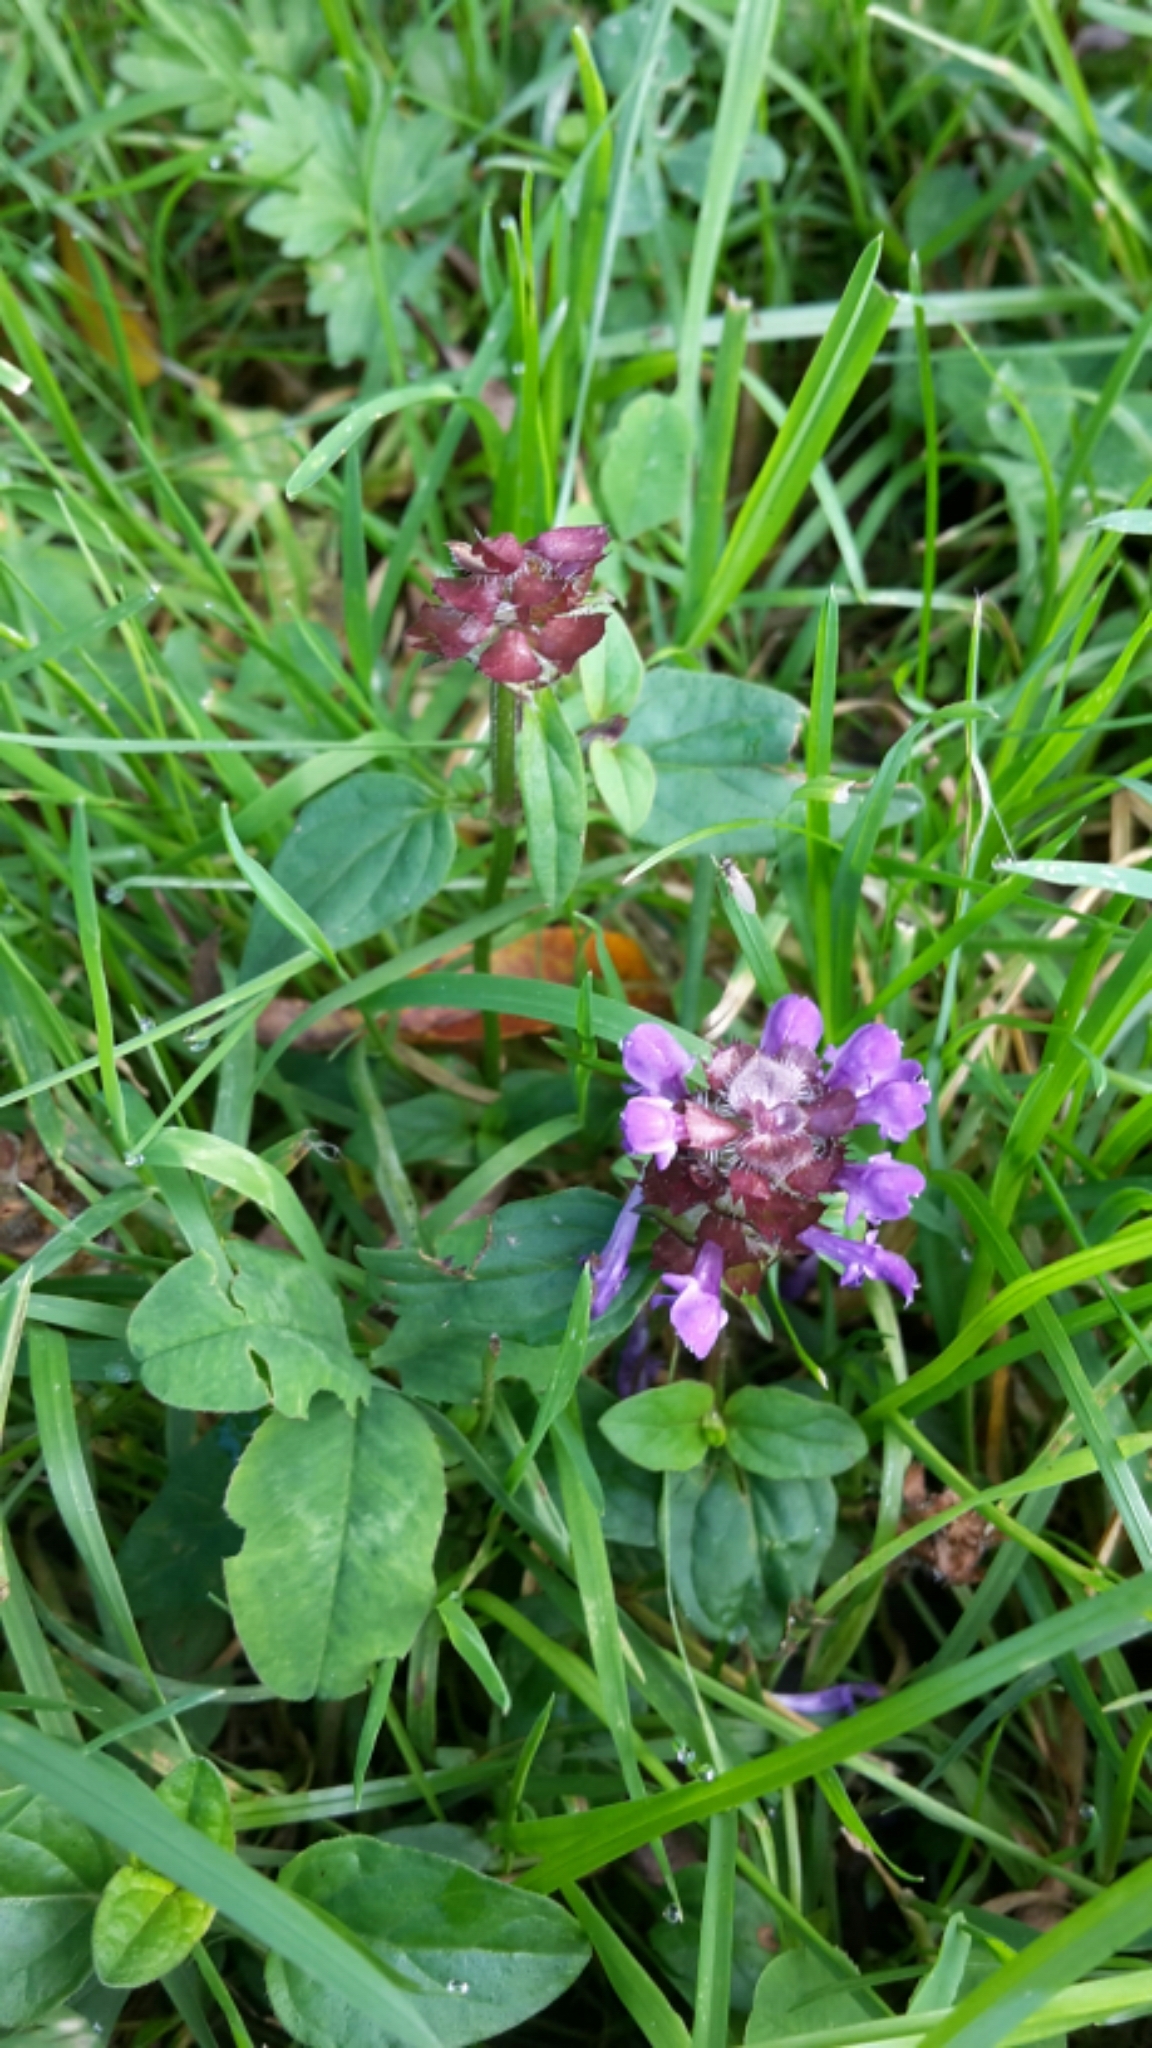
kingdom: Plantae
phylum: Tracheophyta
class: Magnoliopsida
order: Lamiales
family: Lamiaceae
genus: Prunella
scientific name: Prunella vulgaris
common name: Heal-all
